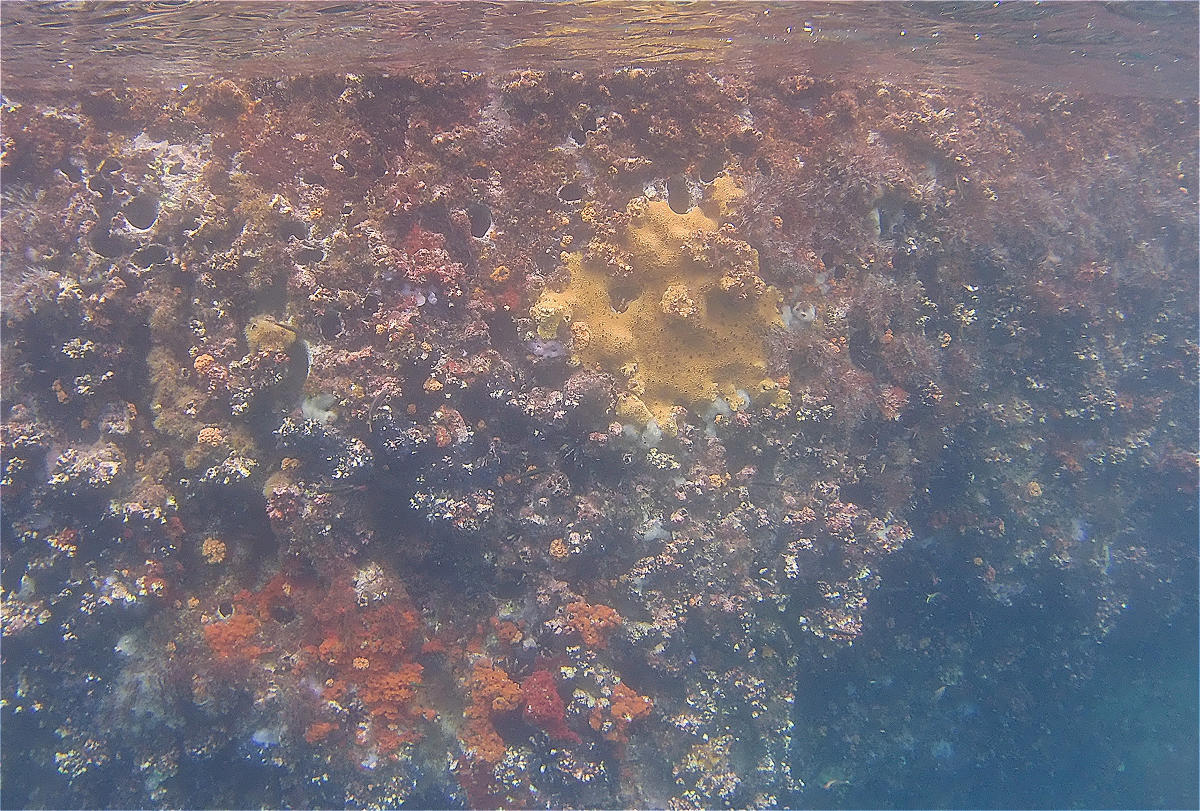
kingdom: Animalia
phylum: Porifera
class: Demospongiae
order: Clionaida
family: Clionaidae
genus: Cliona
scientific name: Cliona chilensis
